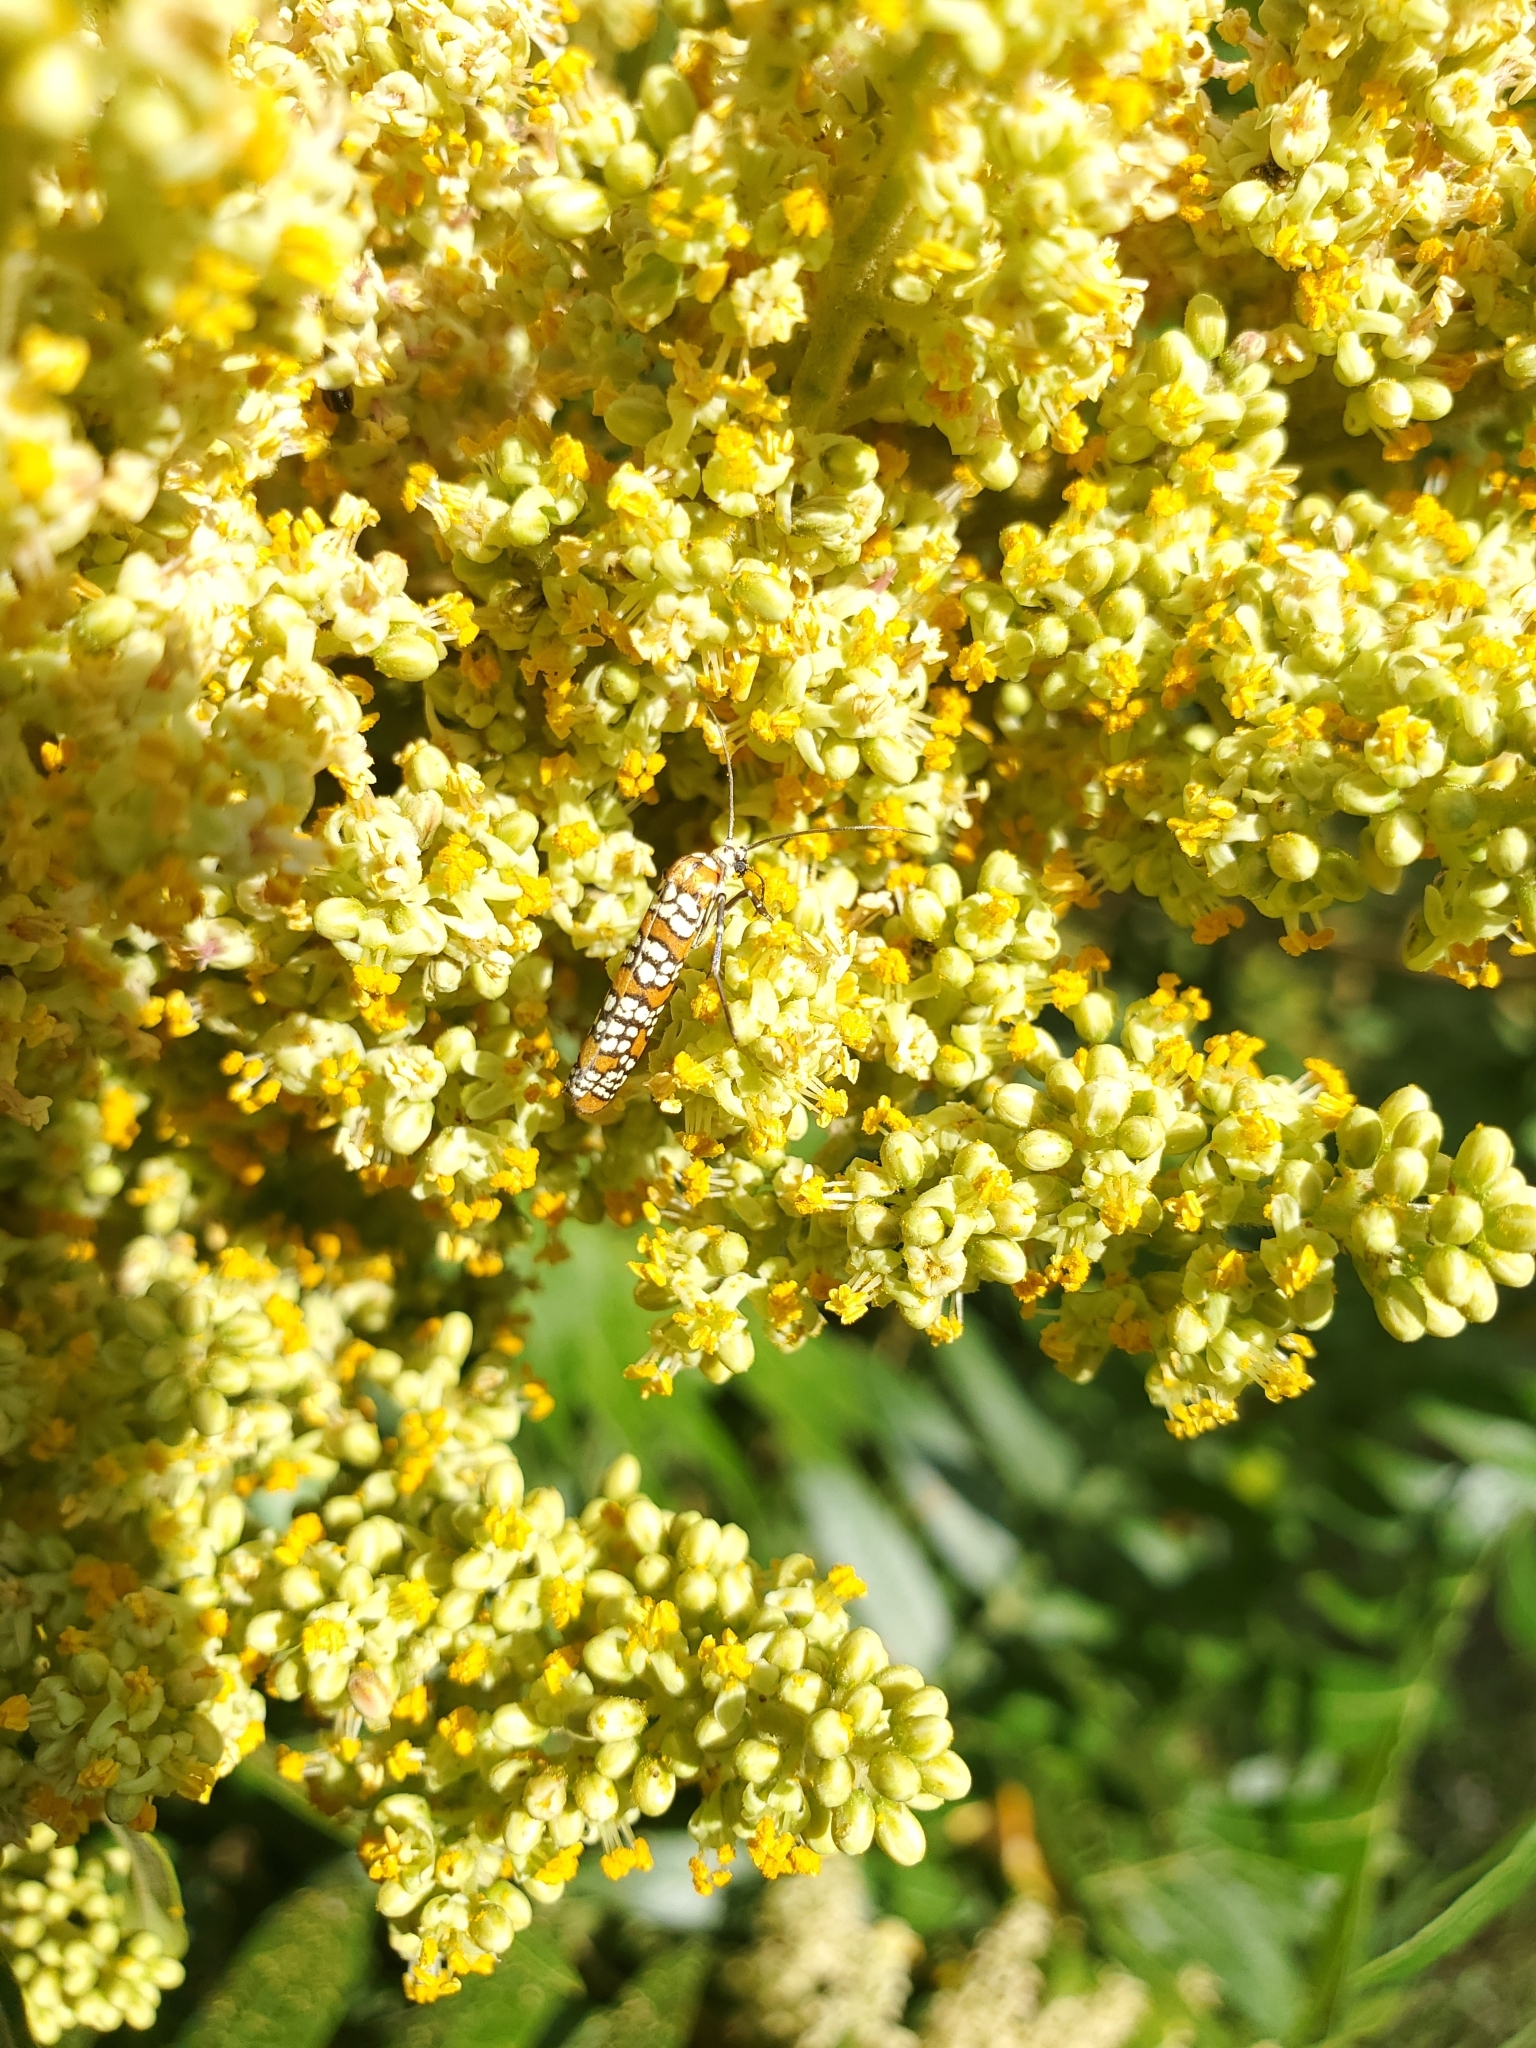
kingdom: Animalia
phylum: Arthropoda
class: Insecta
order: Lepidoptera
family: Attevidae
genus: Atteva
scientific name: Atteva punctella
